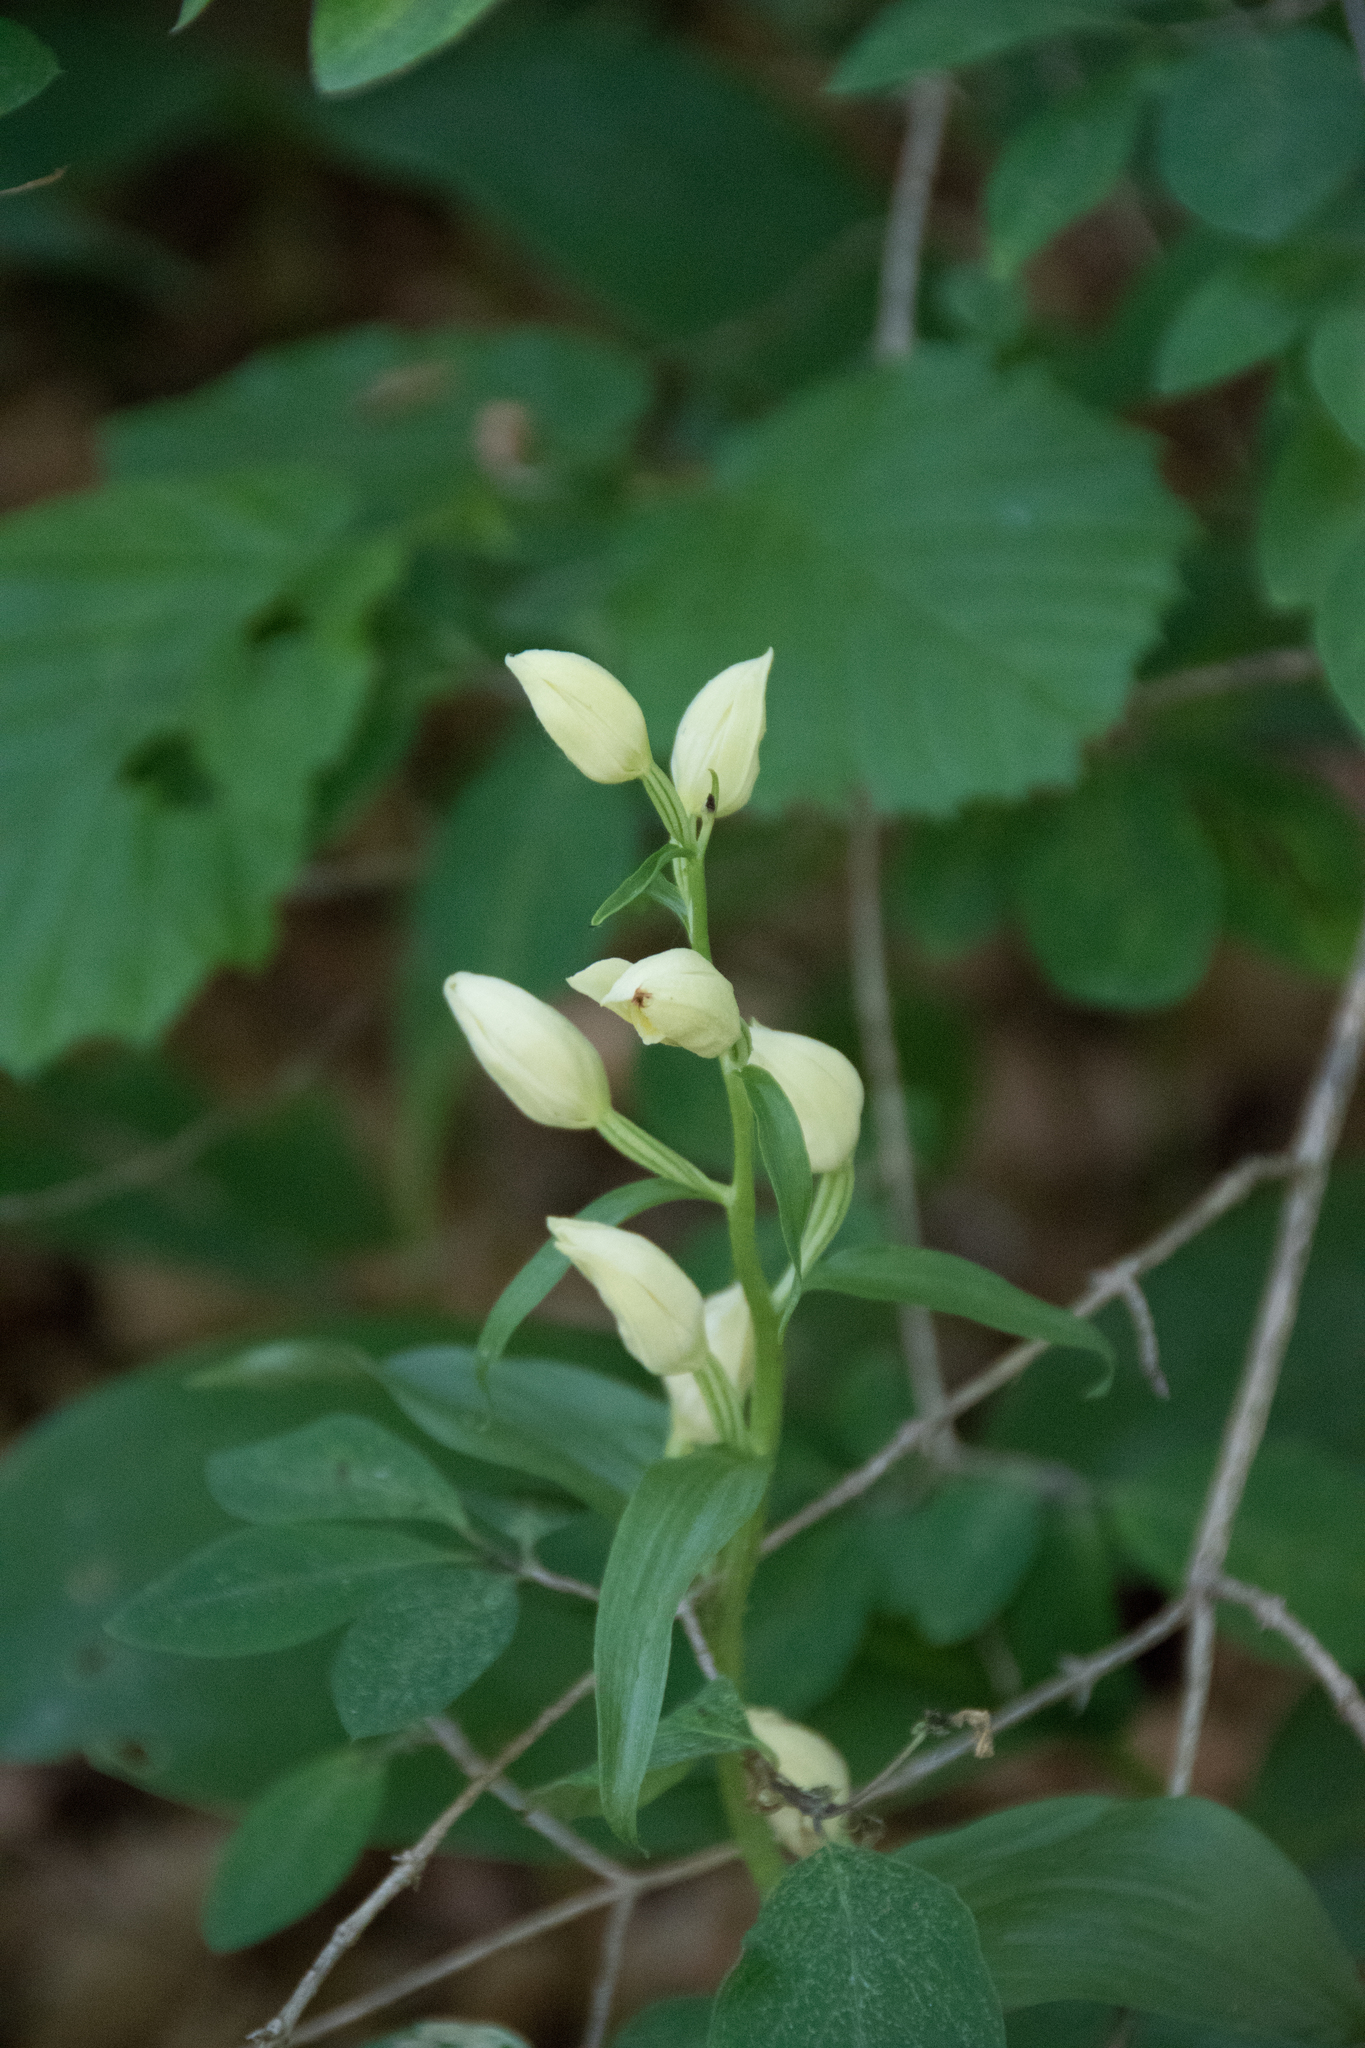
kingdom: Plantae
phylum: Tracheophyta
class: Liliopsida
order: Asparagales
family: Orchidaceae
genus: Cephalanthera
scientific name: Cephalanthera damasonium
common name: White helleborine
